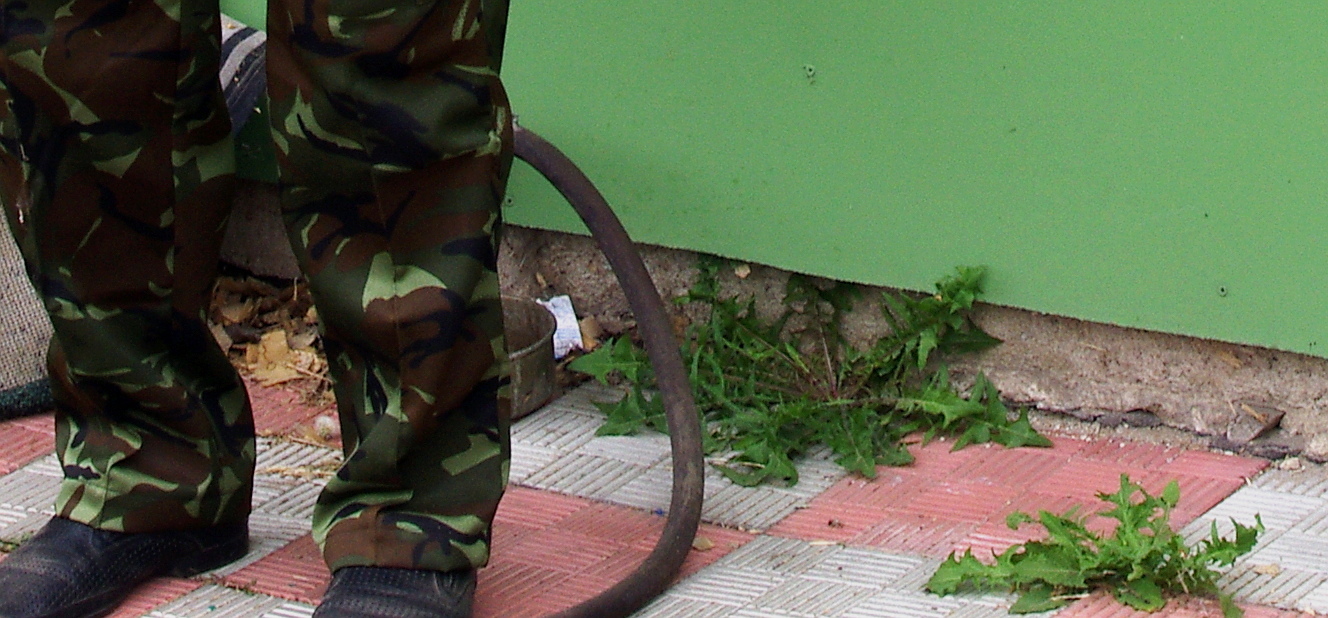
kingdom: Plantae
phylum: Tracheophyta
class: Magnoliopsida
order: Asterales
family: Asteraceae
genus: Taraxacum
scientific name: Taraxacum officinale
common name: Common dandelion
